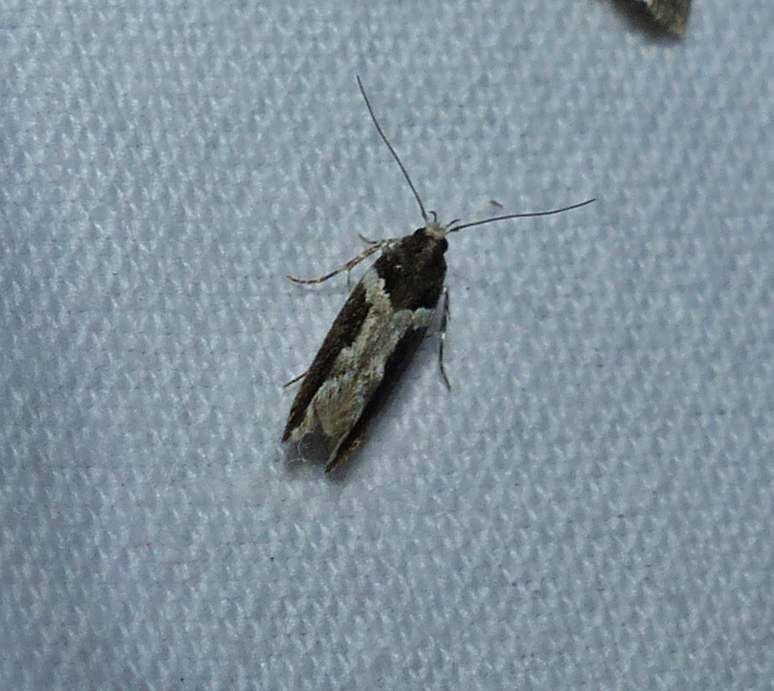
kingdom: Animalia
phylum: Arthropoda
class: Insecta
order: Lepidoptera
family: Gelechiidae
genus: Telphusa
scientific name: Telphusa longifasciella
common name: Y-backed telphusa
